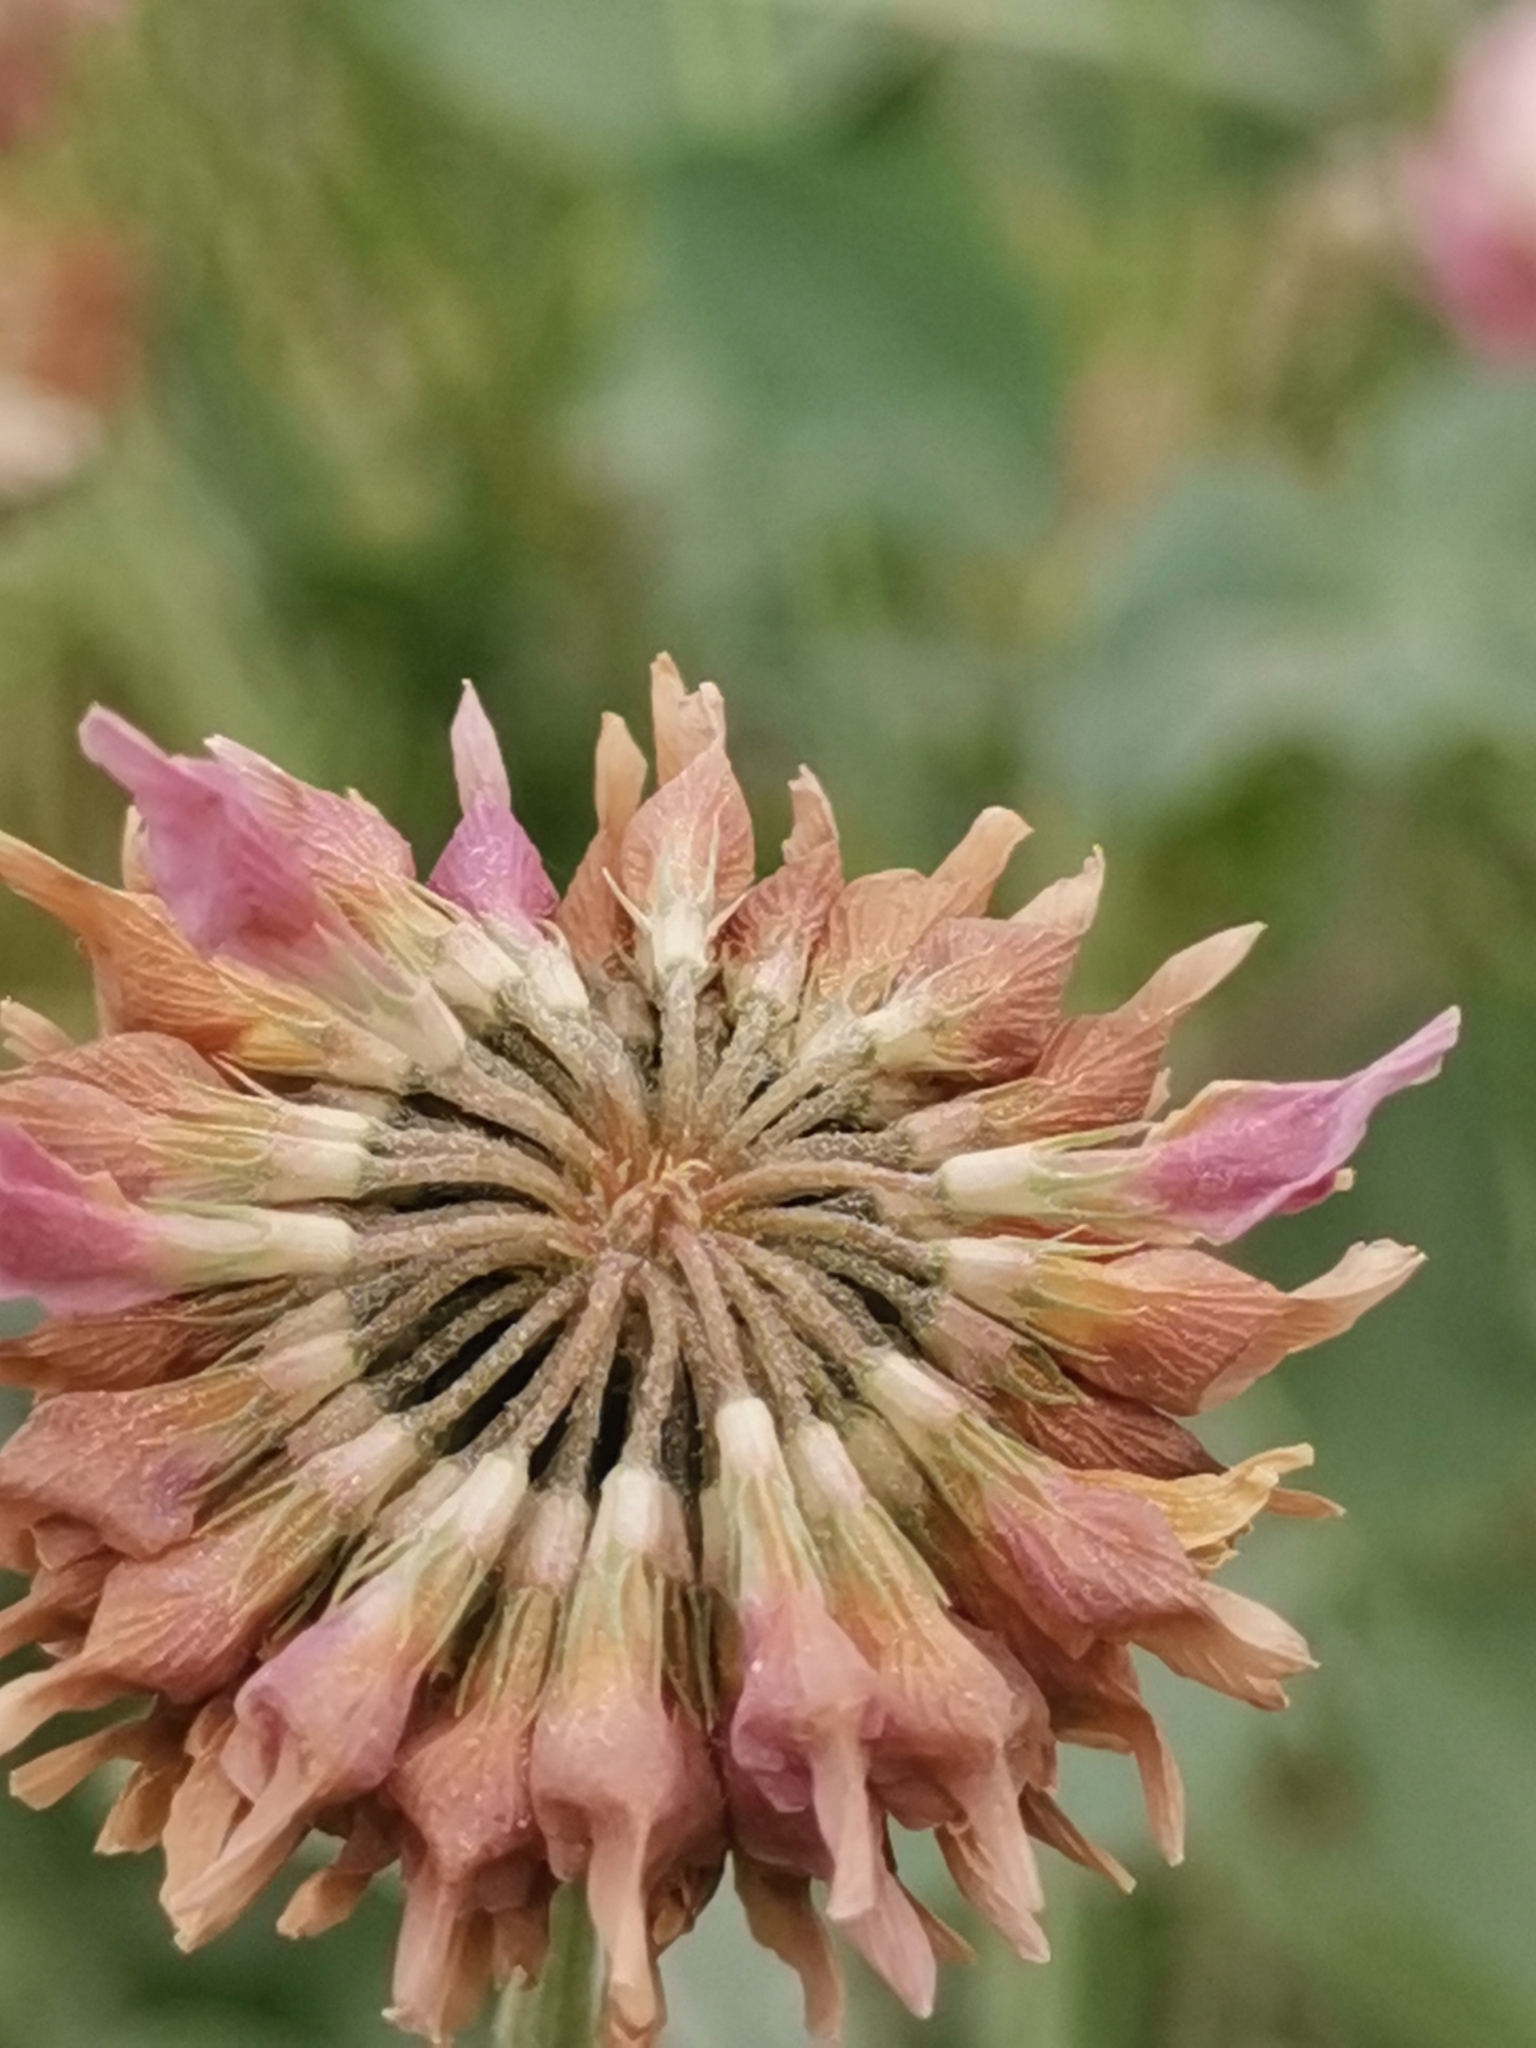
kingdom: Plantae
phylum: Tracheophyta
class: Magnoliopsida
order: Fabales
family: Fabaceae
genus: Trifolium
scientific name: Trifolium hybridum
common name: Alsike clover
